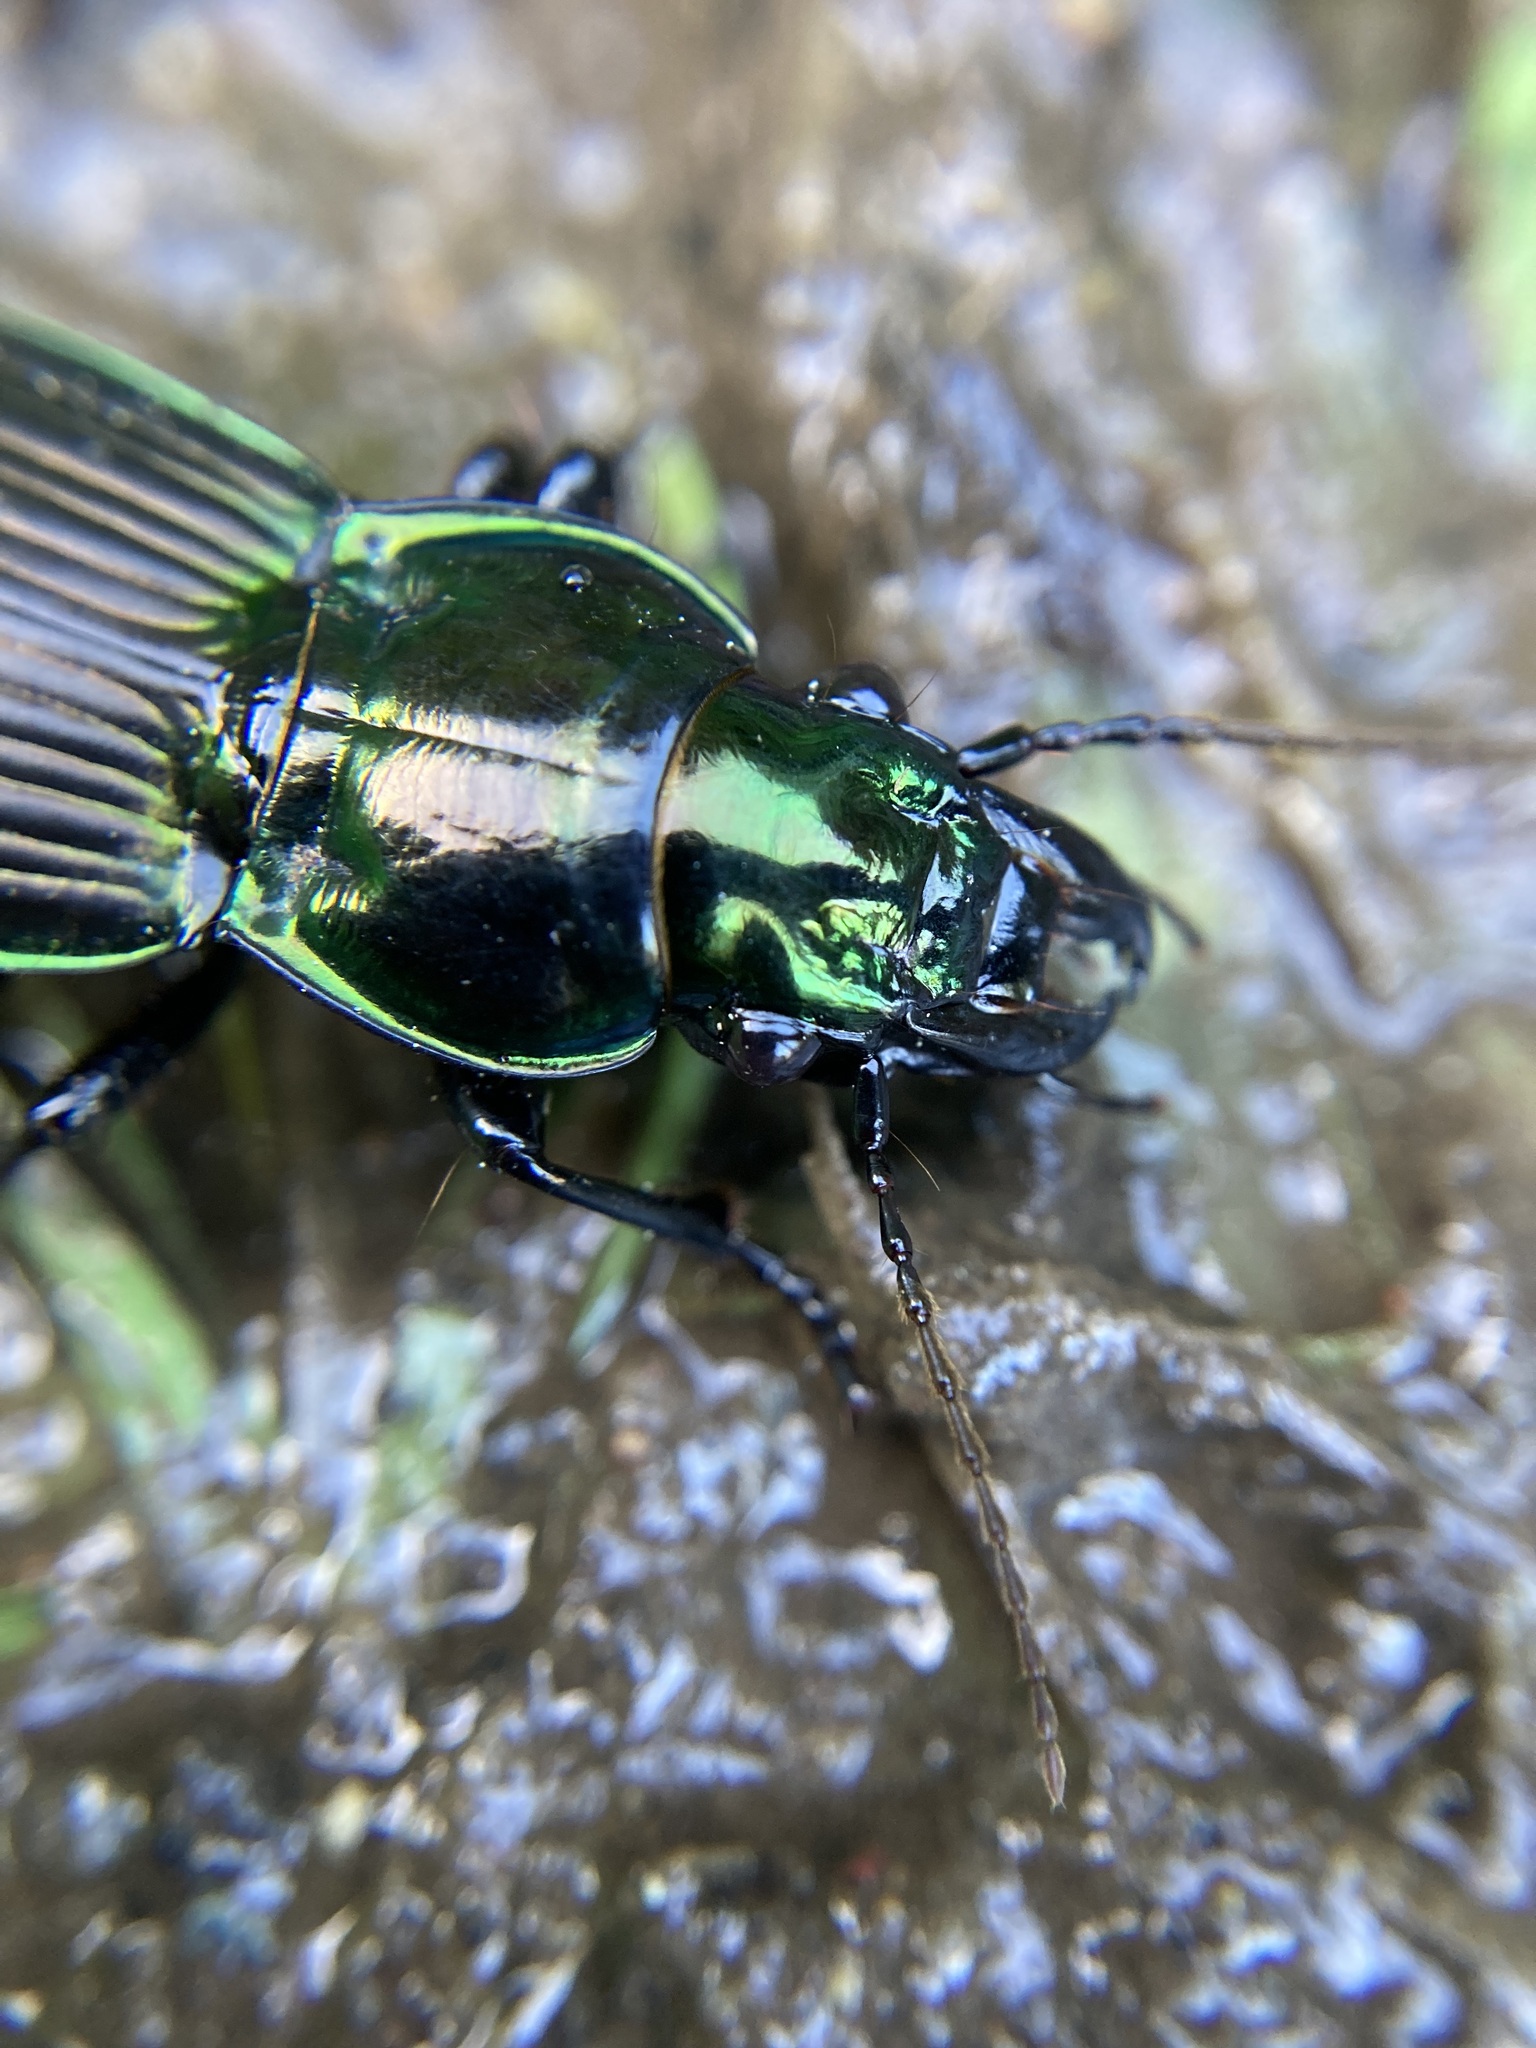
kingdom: Animalia
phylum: Arthropoda
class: Insecta
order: Coleoptera
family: Carabidae
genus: Megadromus
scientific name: Megadromus antarcticus
